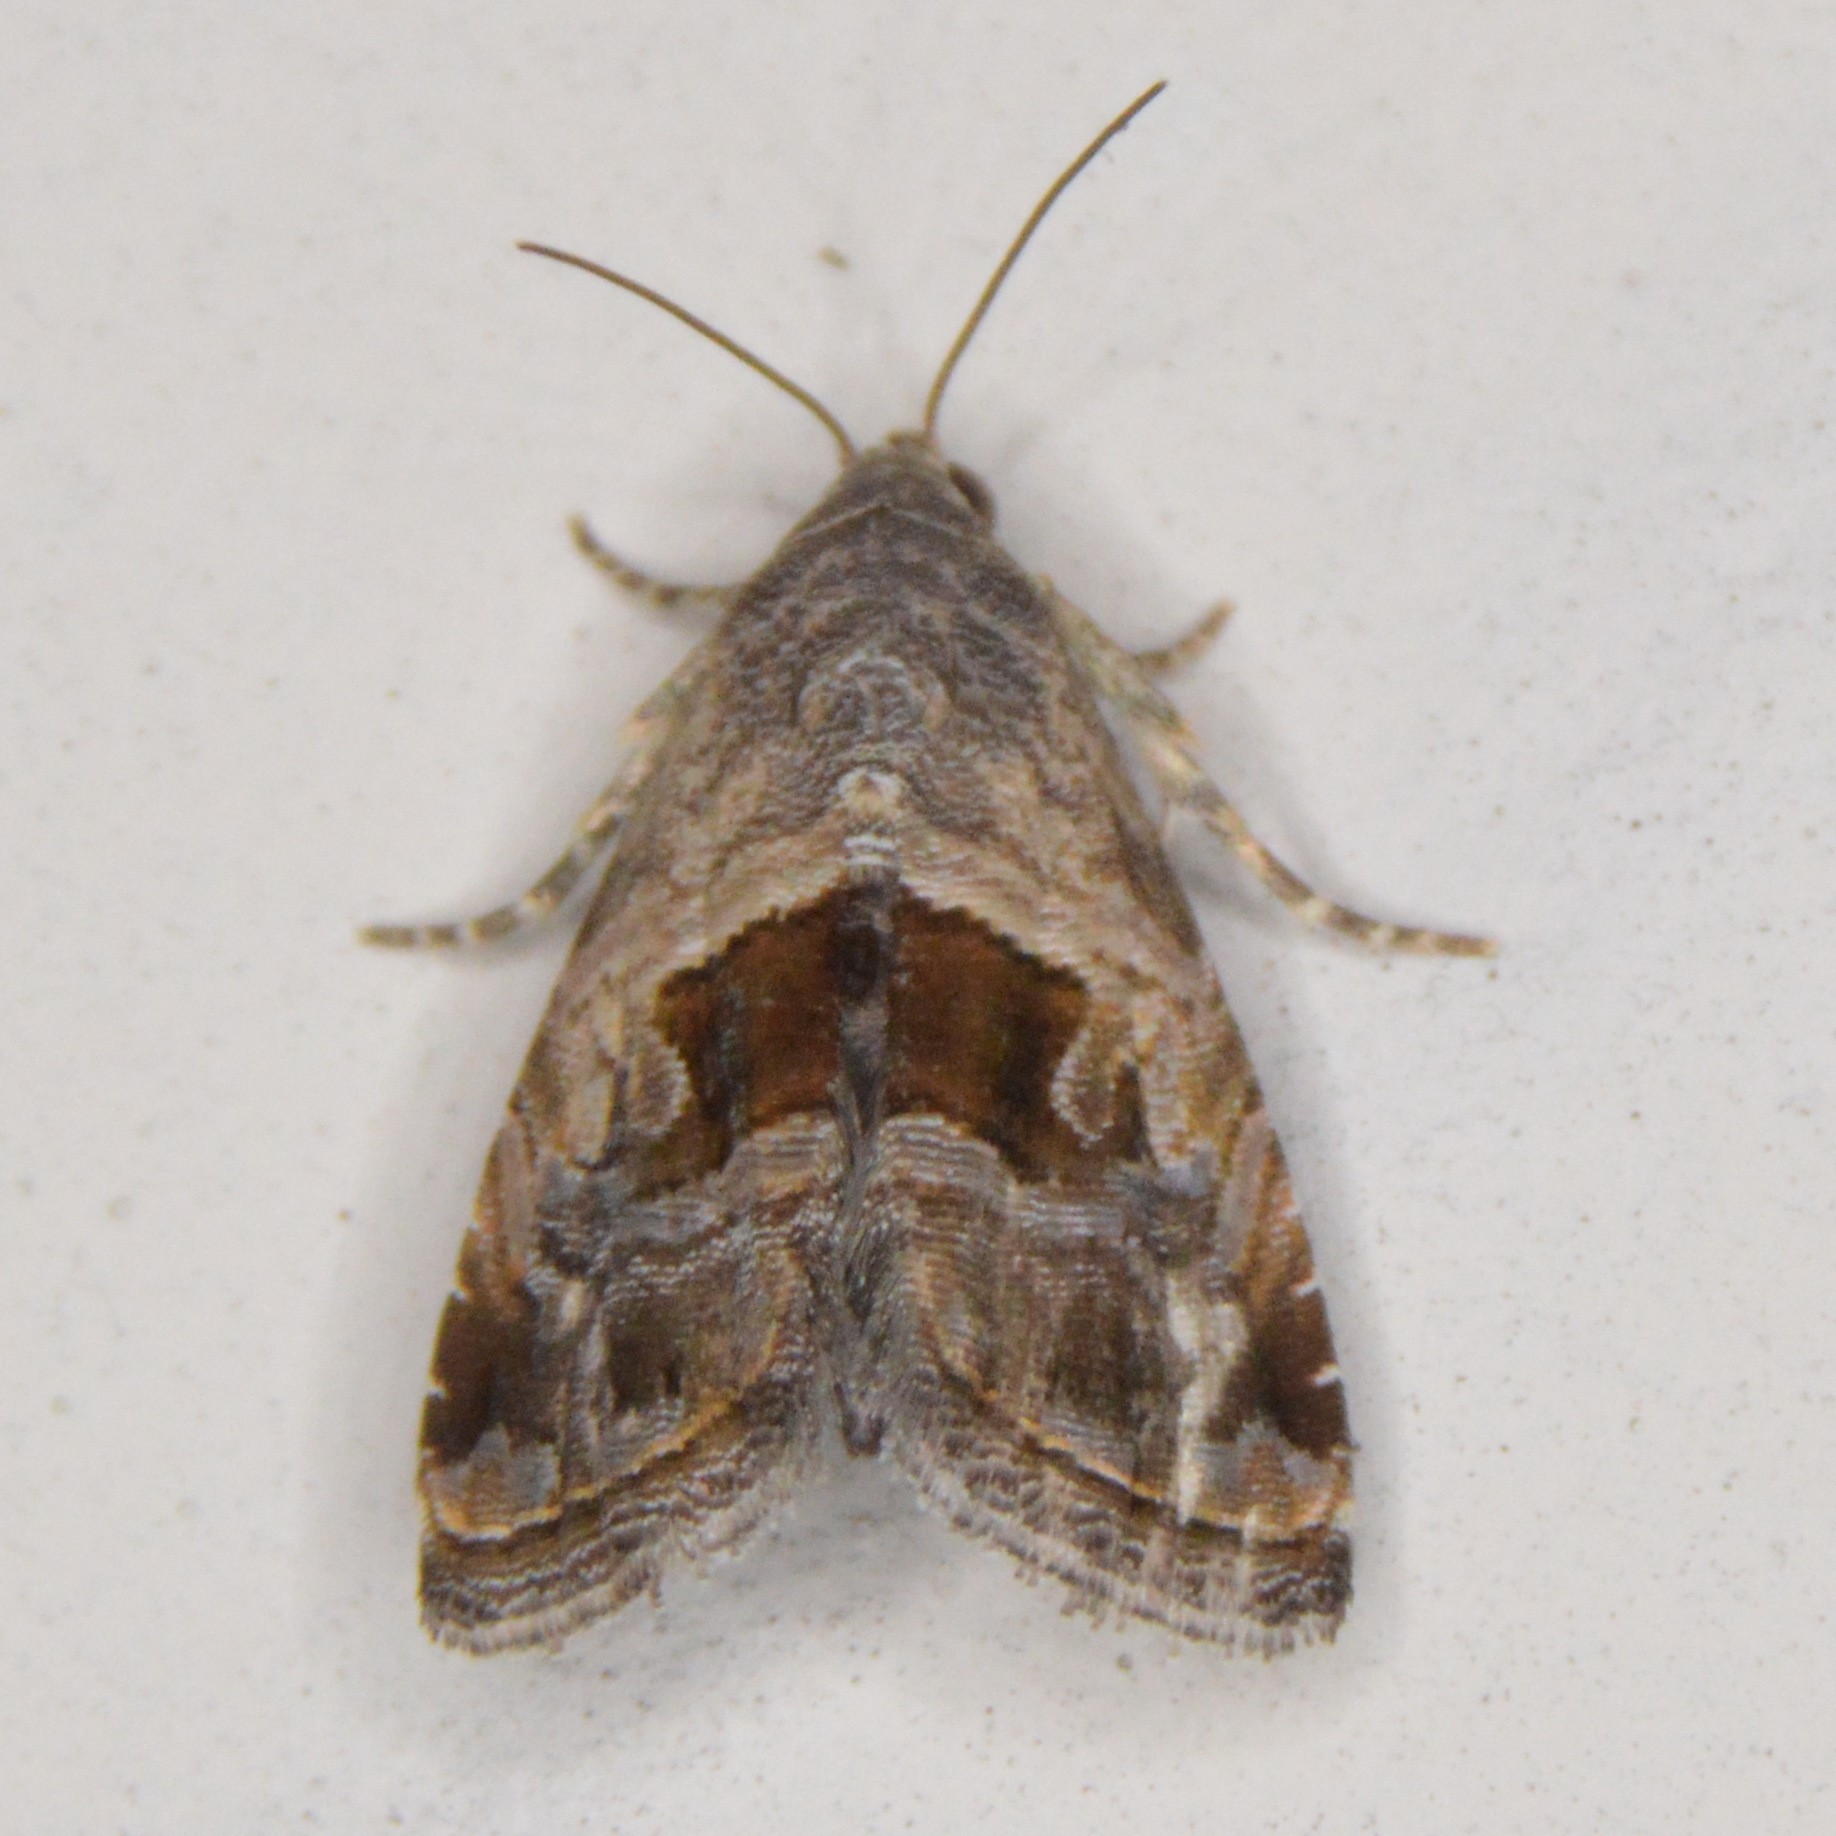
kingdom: Animalia
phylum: Arthropoda
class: Insecta
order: Lepidoptera
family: Noctuidae
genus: Tripudia
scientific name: Tripudia quadrifera
